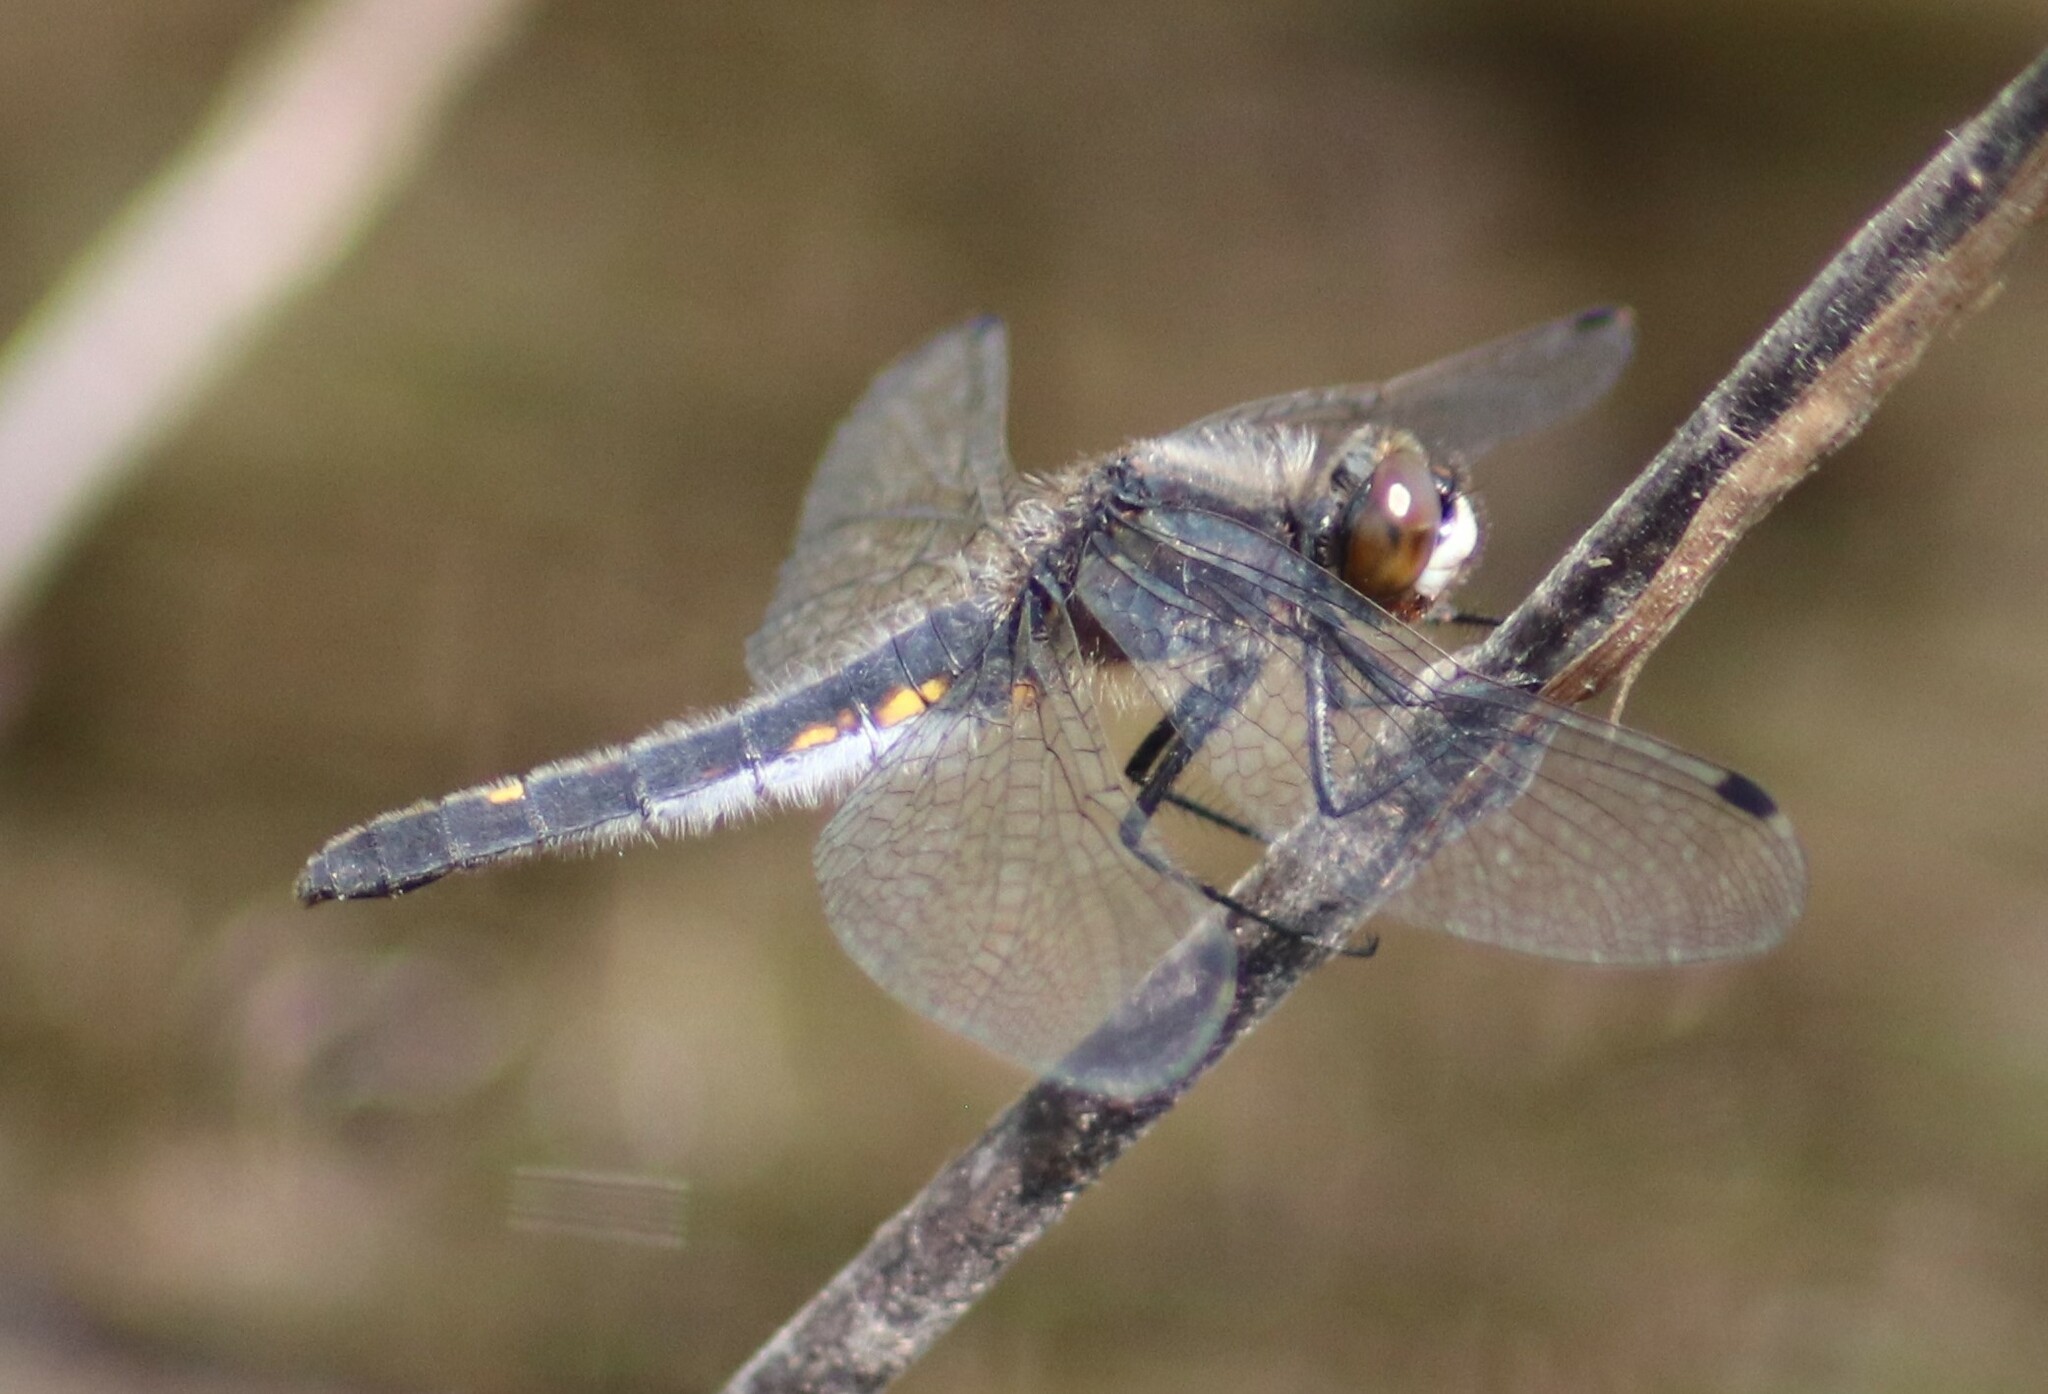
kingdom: Animalia
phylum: Arthropoda
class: Insecta
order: Odonata
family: Libellulidae
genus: Leucorrhinia
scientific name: Leucorrhinia intacta
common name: Dot-tailed whiteface
